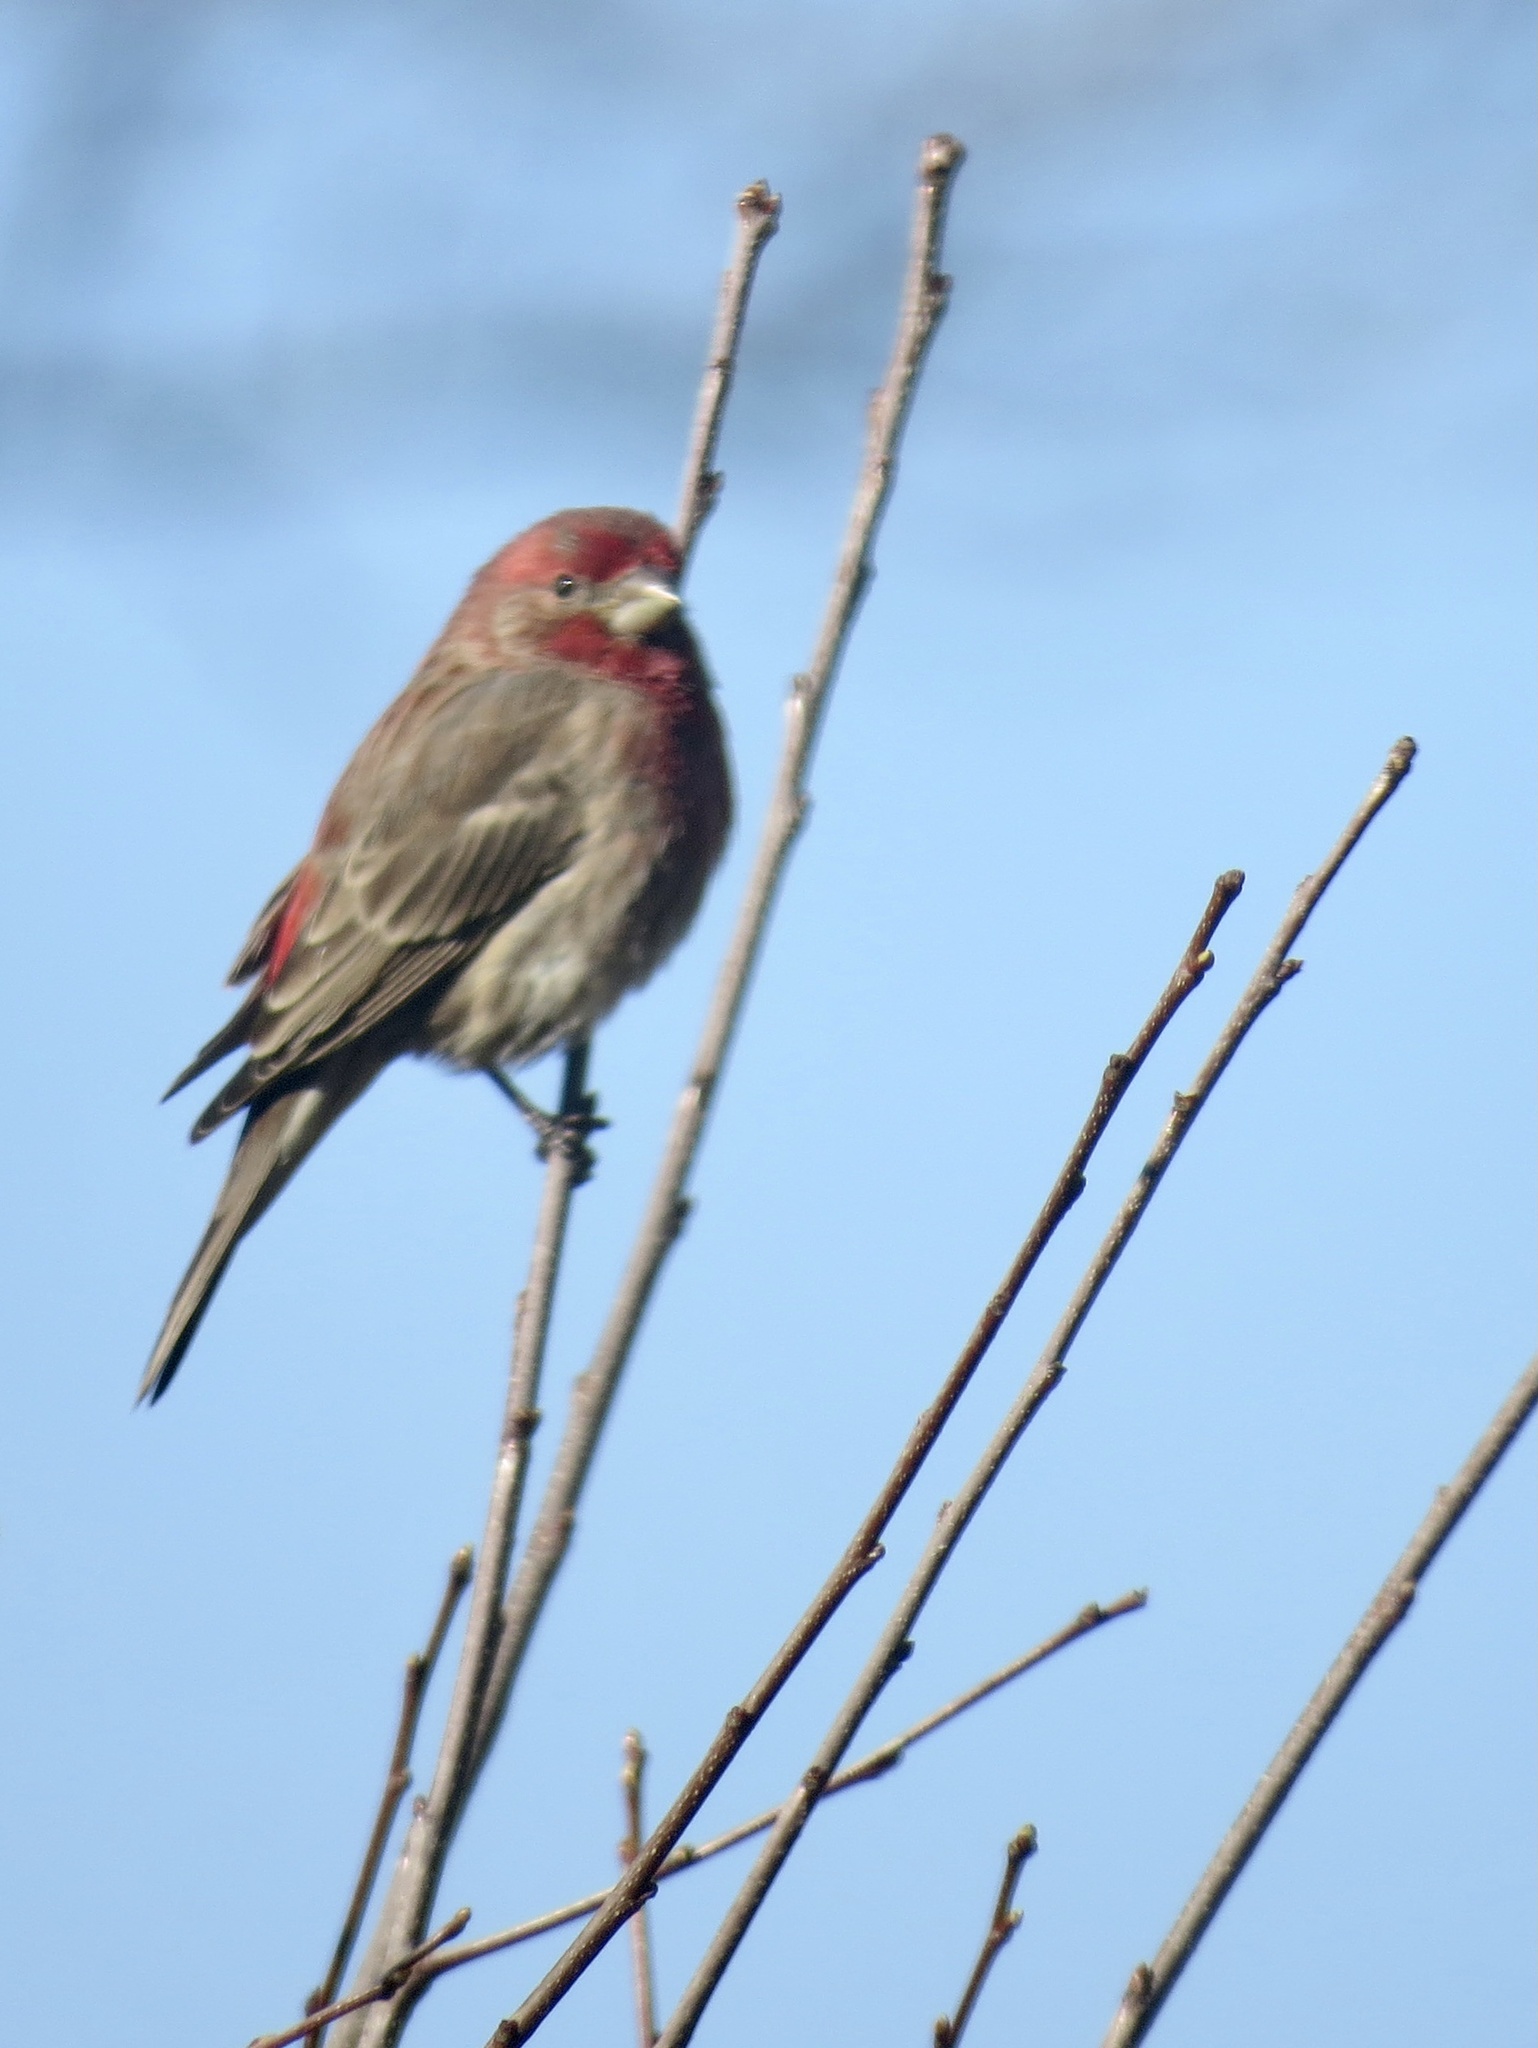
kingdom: Animalia
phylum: Chordata
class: Aves
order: Passeriformes
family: Fringillidae
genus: Haemorhous
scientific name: Haemorhous mexicanus
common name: House finch
